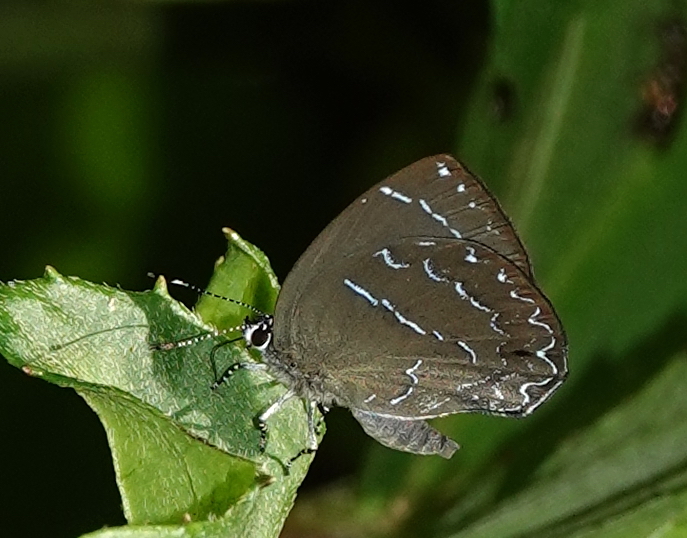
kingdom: Animalia
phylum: Arthropoda
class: Insecta
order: Lepidoptera
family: Lycaenidae
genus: Timaeta
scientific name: Timaeta timaeus
